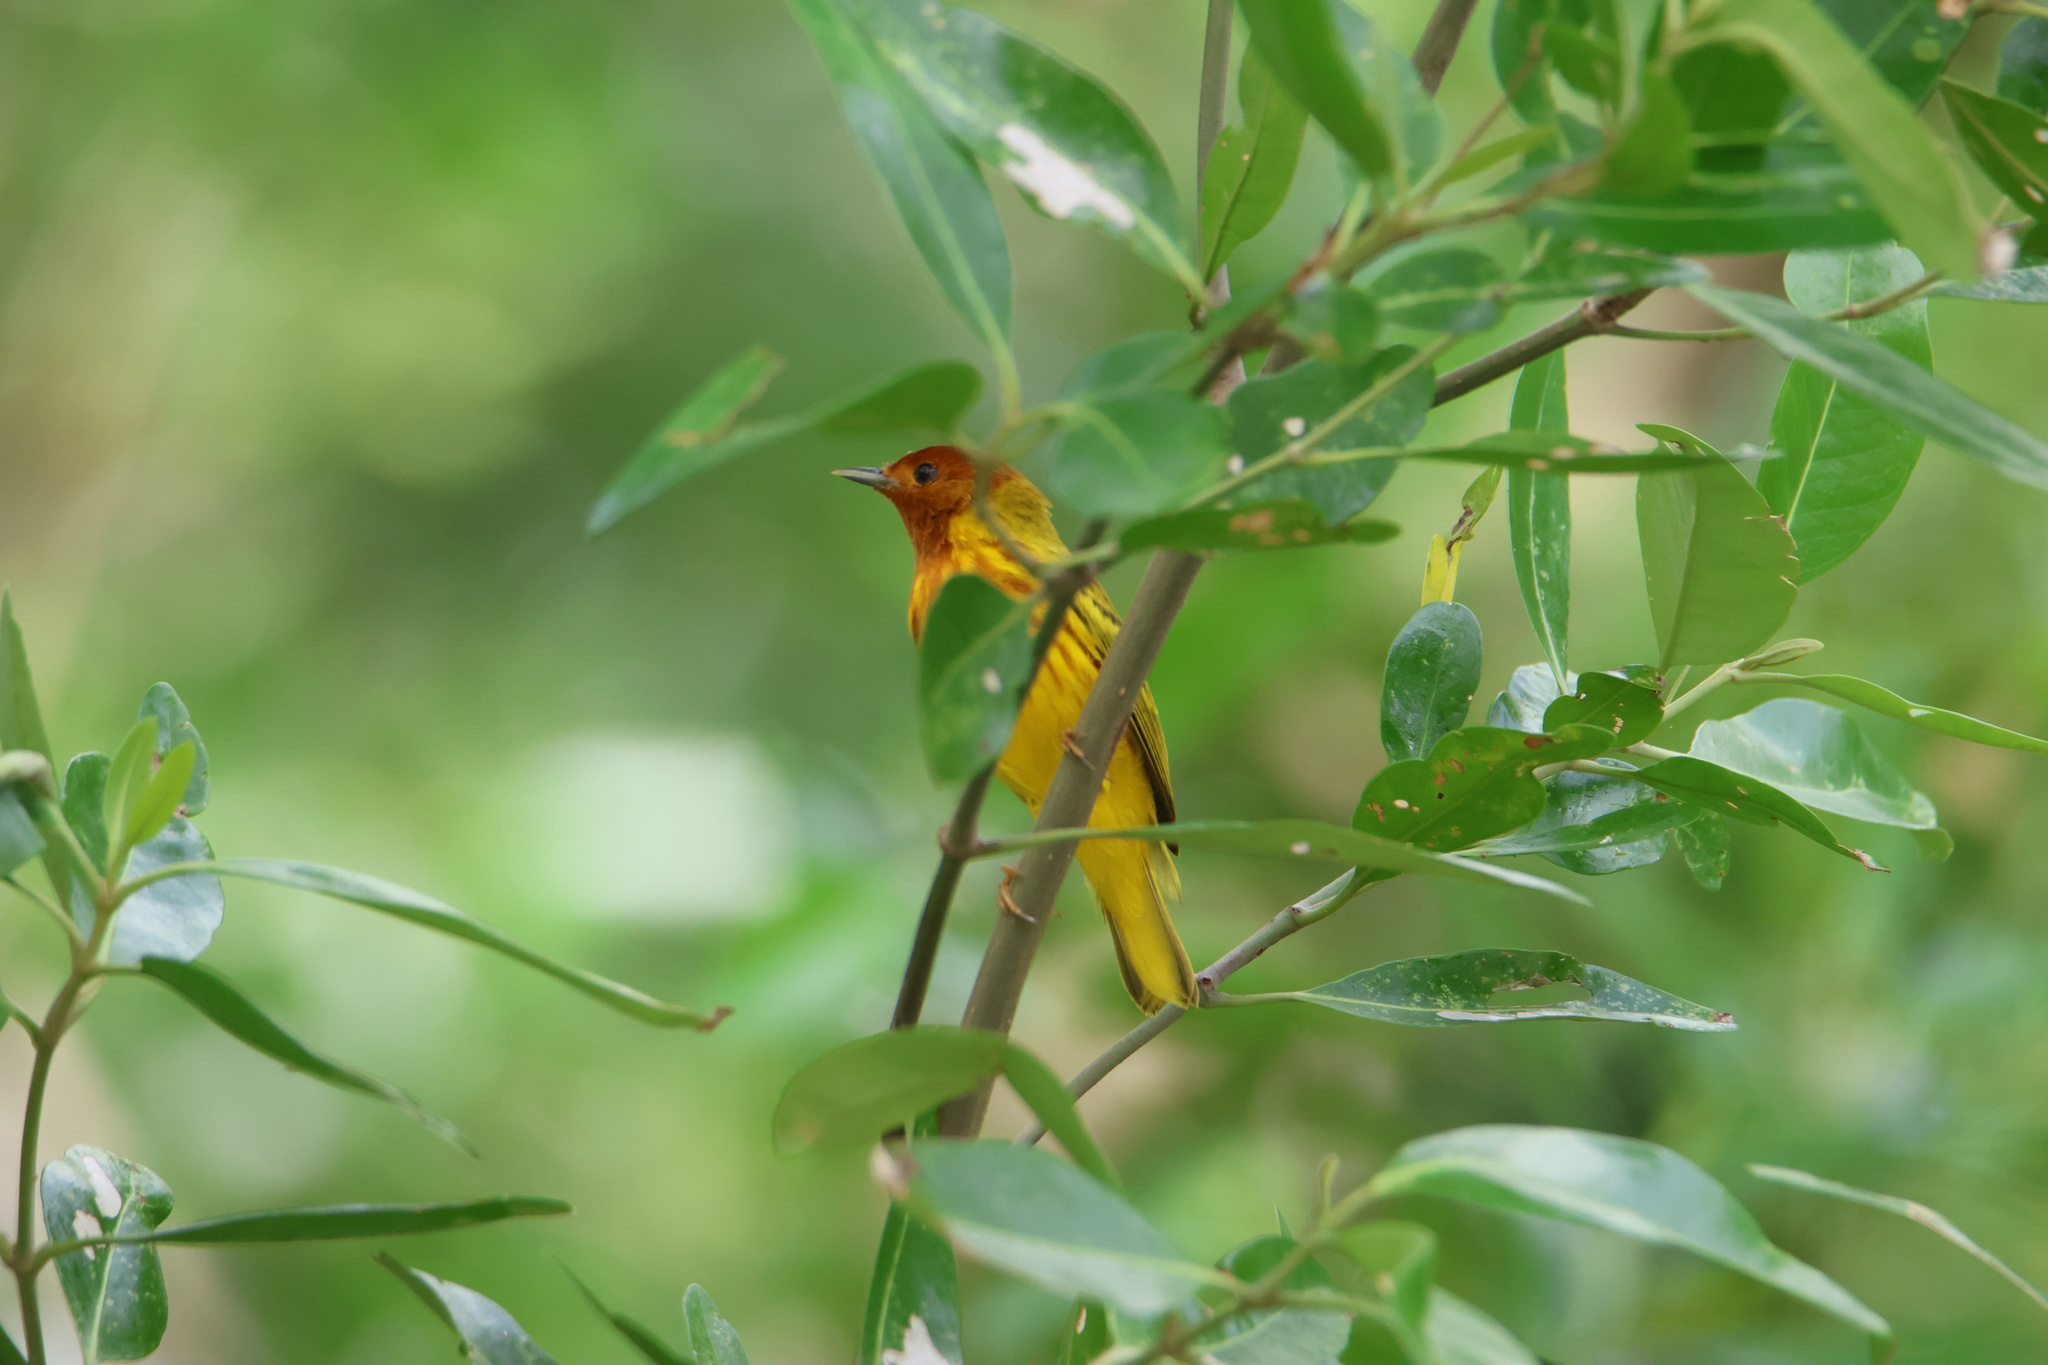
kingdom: Animalia
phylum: Chordata
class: Aves
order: Passeriformes
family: Parulidae
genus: Setophaga
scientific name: Setophaga petechia
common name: Yellow warbler
